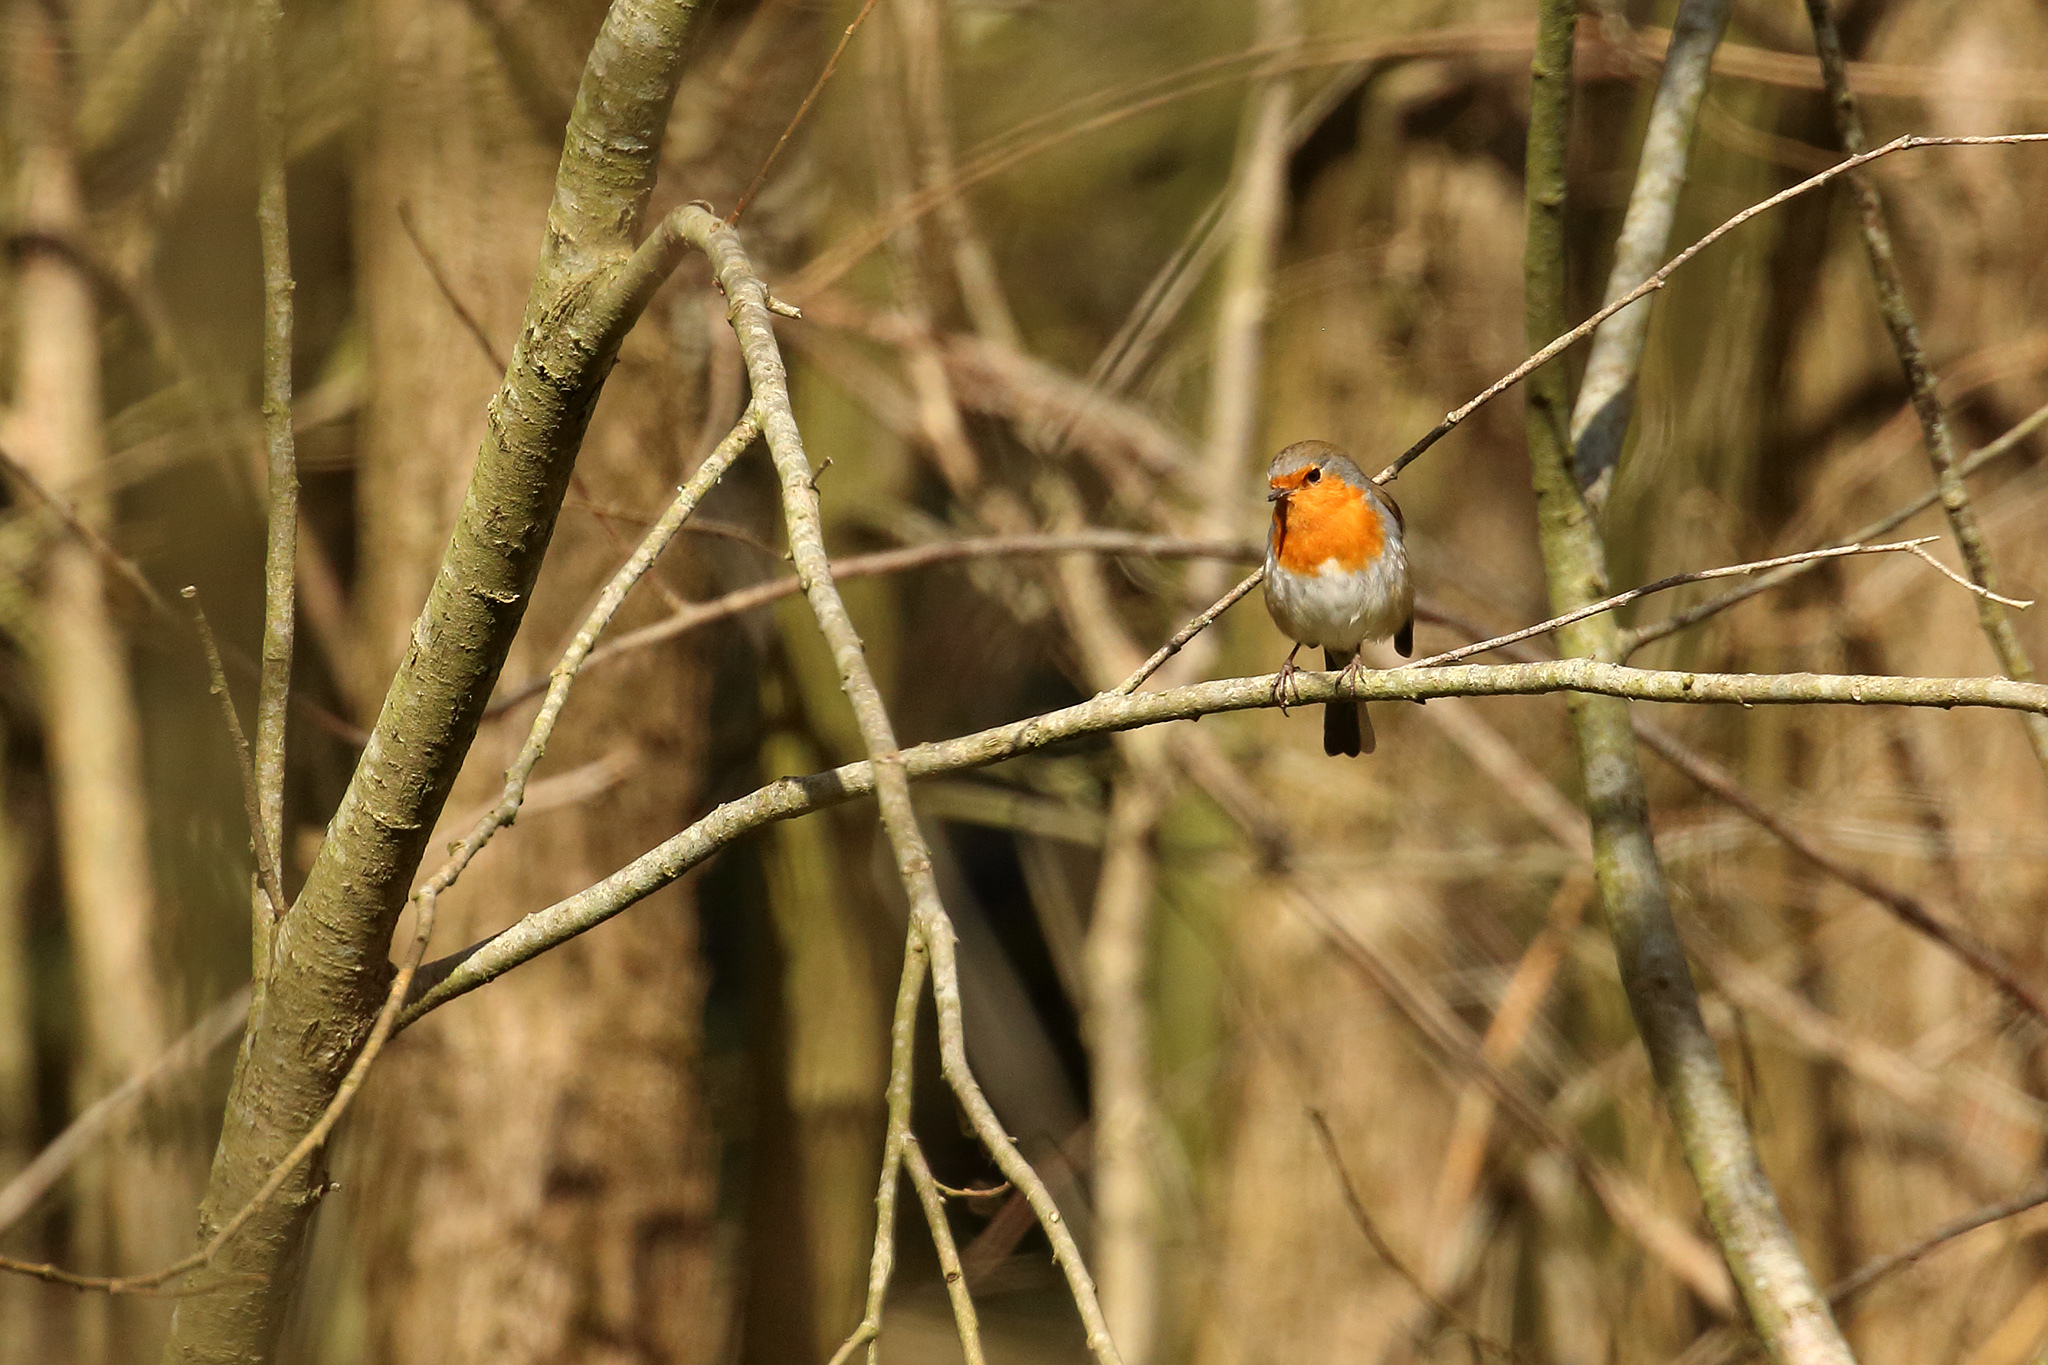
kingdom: Animalia
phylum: Chordata
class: Aves
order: Passeriformes
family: Muscicapidae
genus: Erithacus
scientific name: Erithacus rubecula
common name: European robin
